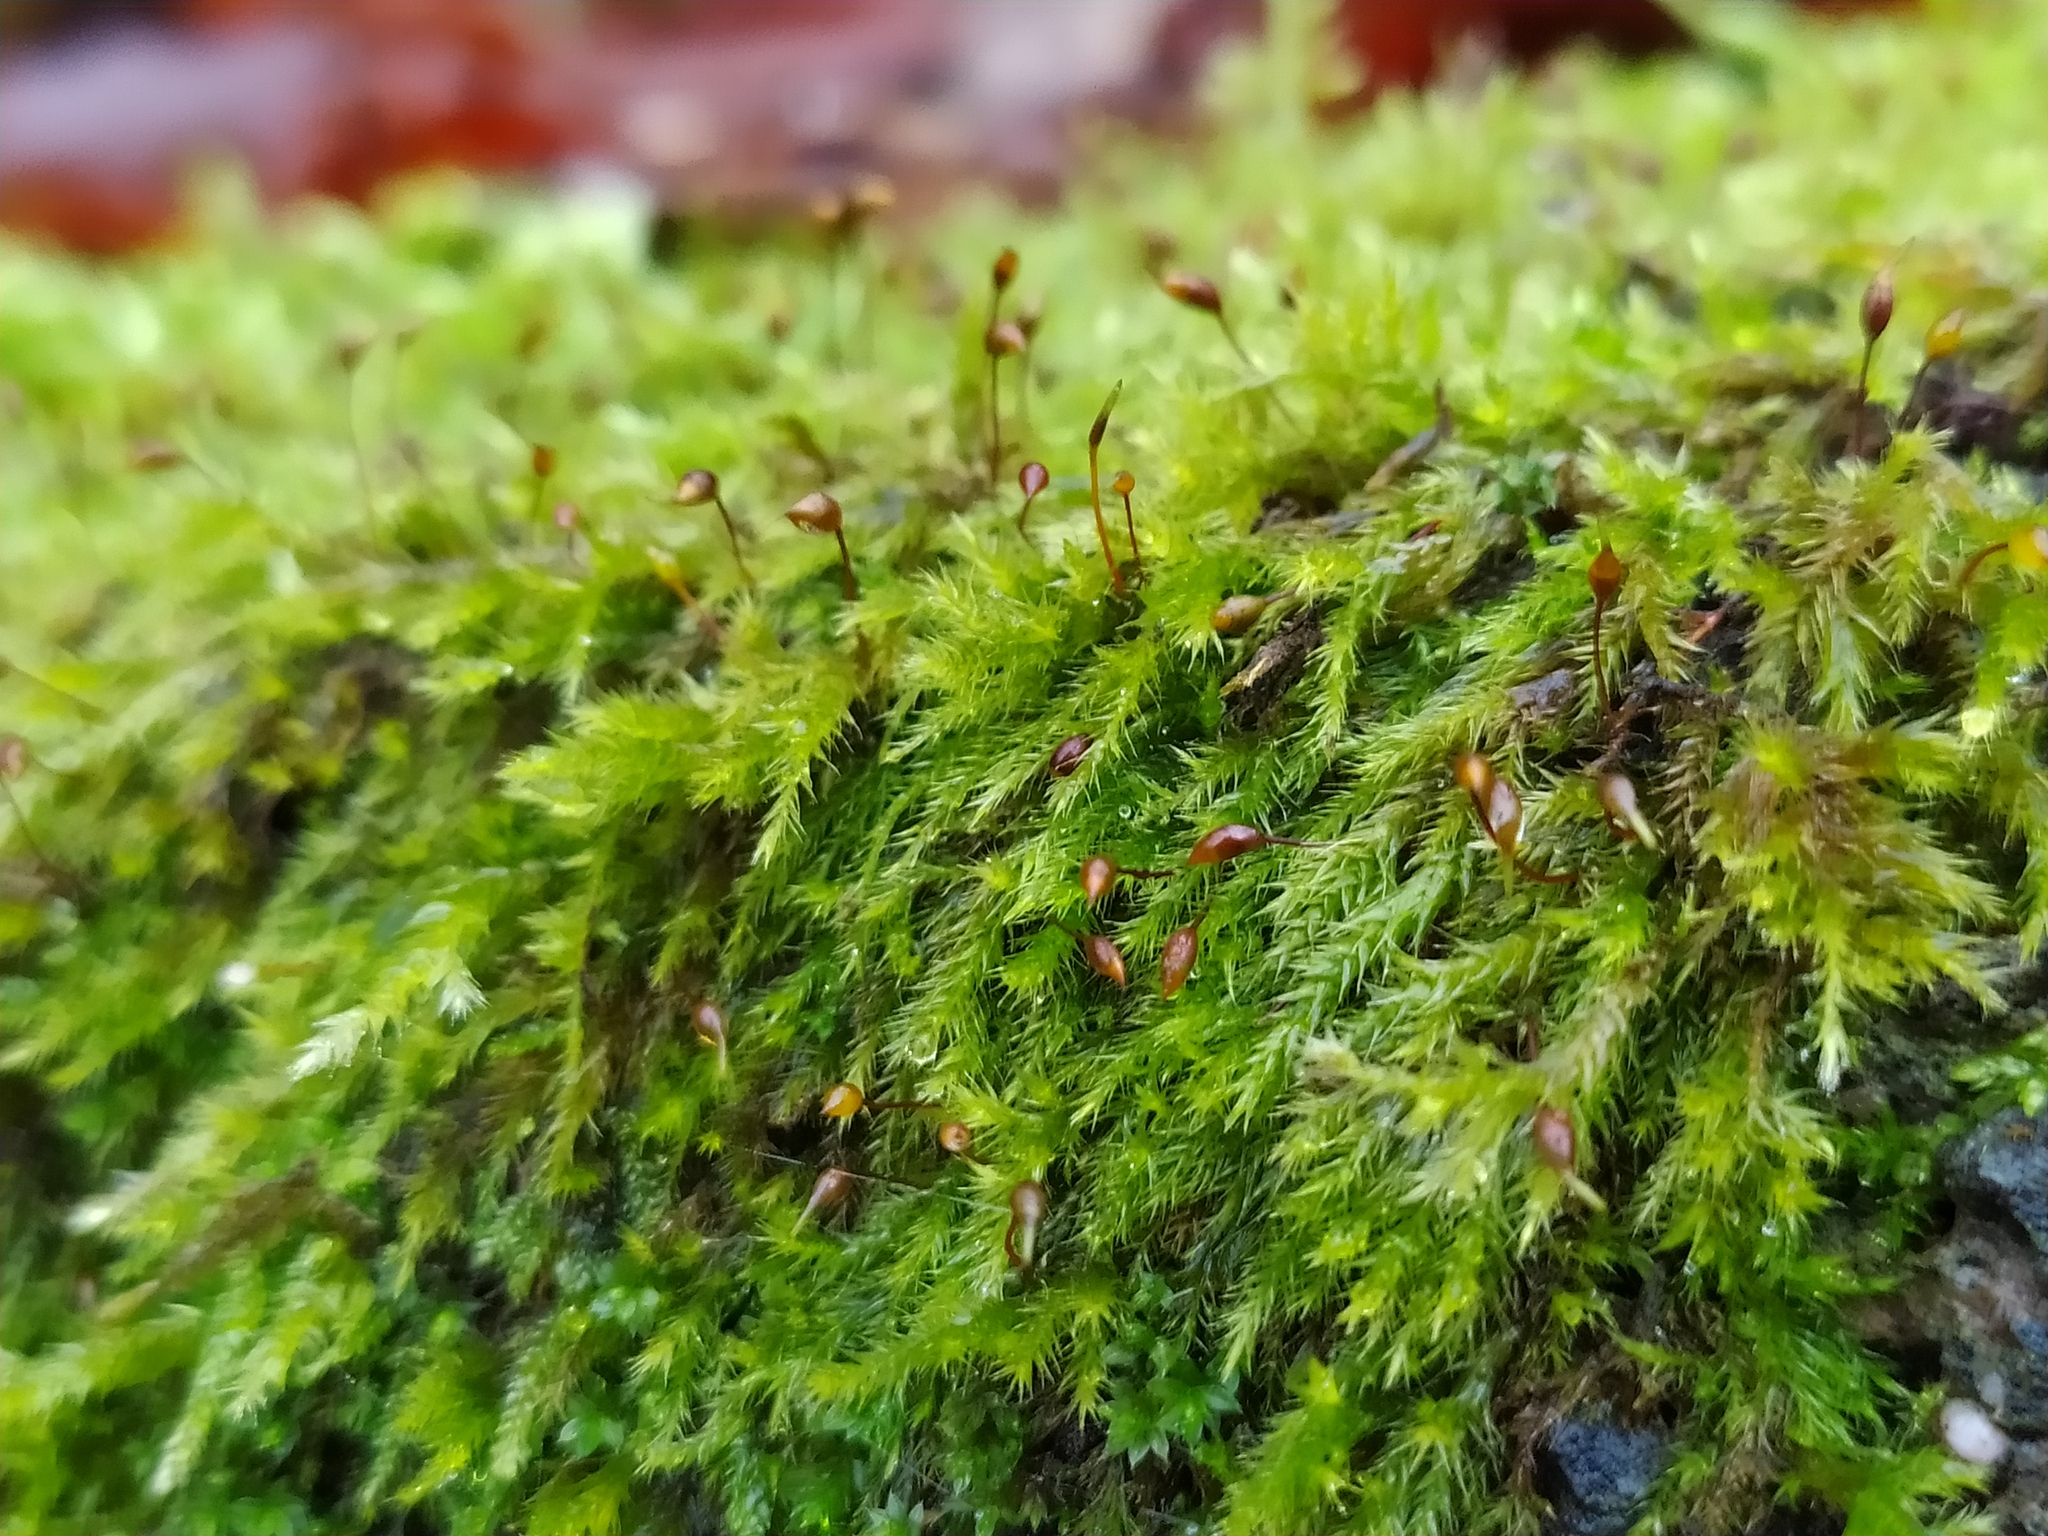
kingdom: Plantae
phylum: Bryophyta
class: Bryopsida
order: Hypnales
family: Brachytheciaceae
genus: Brachytheciastrum
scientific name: Brachytheciastrum velutinum
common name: Velvet feather-moss
